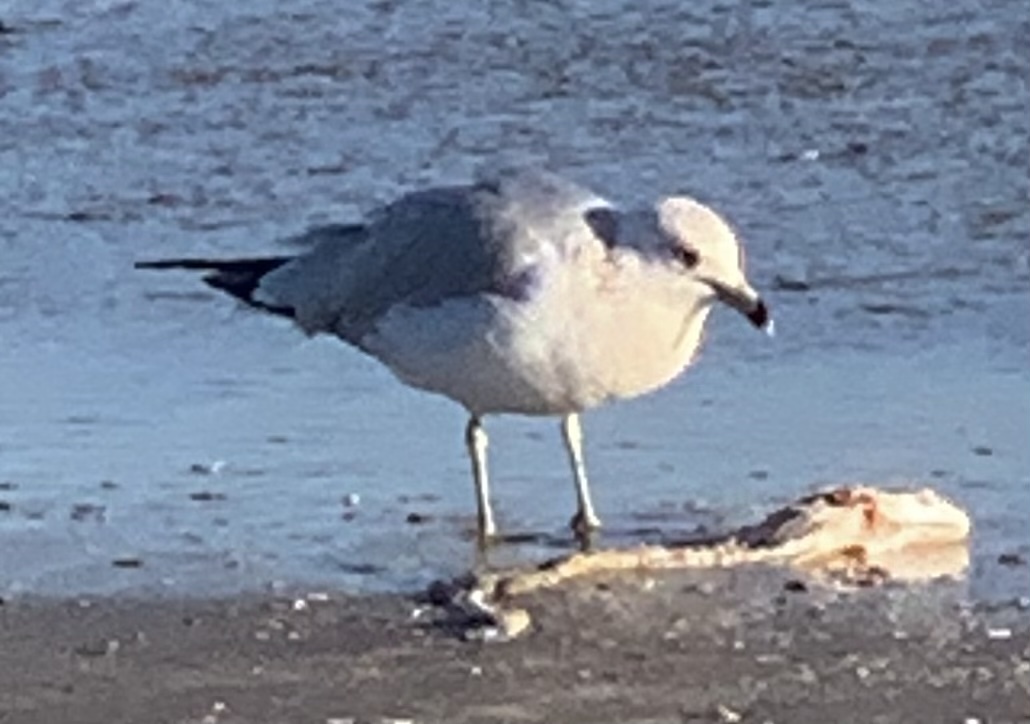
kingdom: Animalia
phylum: Chordata
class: Aves
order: Charadriiformes
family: Laridae
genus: Larus
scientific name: Larus delawarensis
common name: Ring-billed gull
